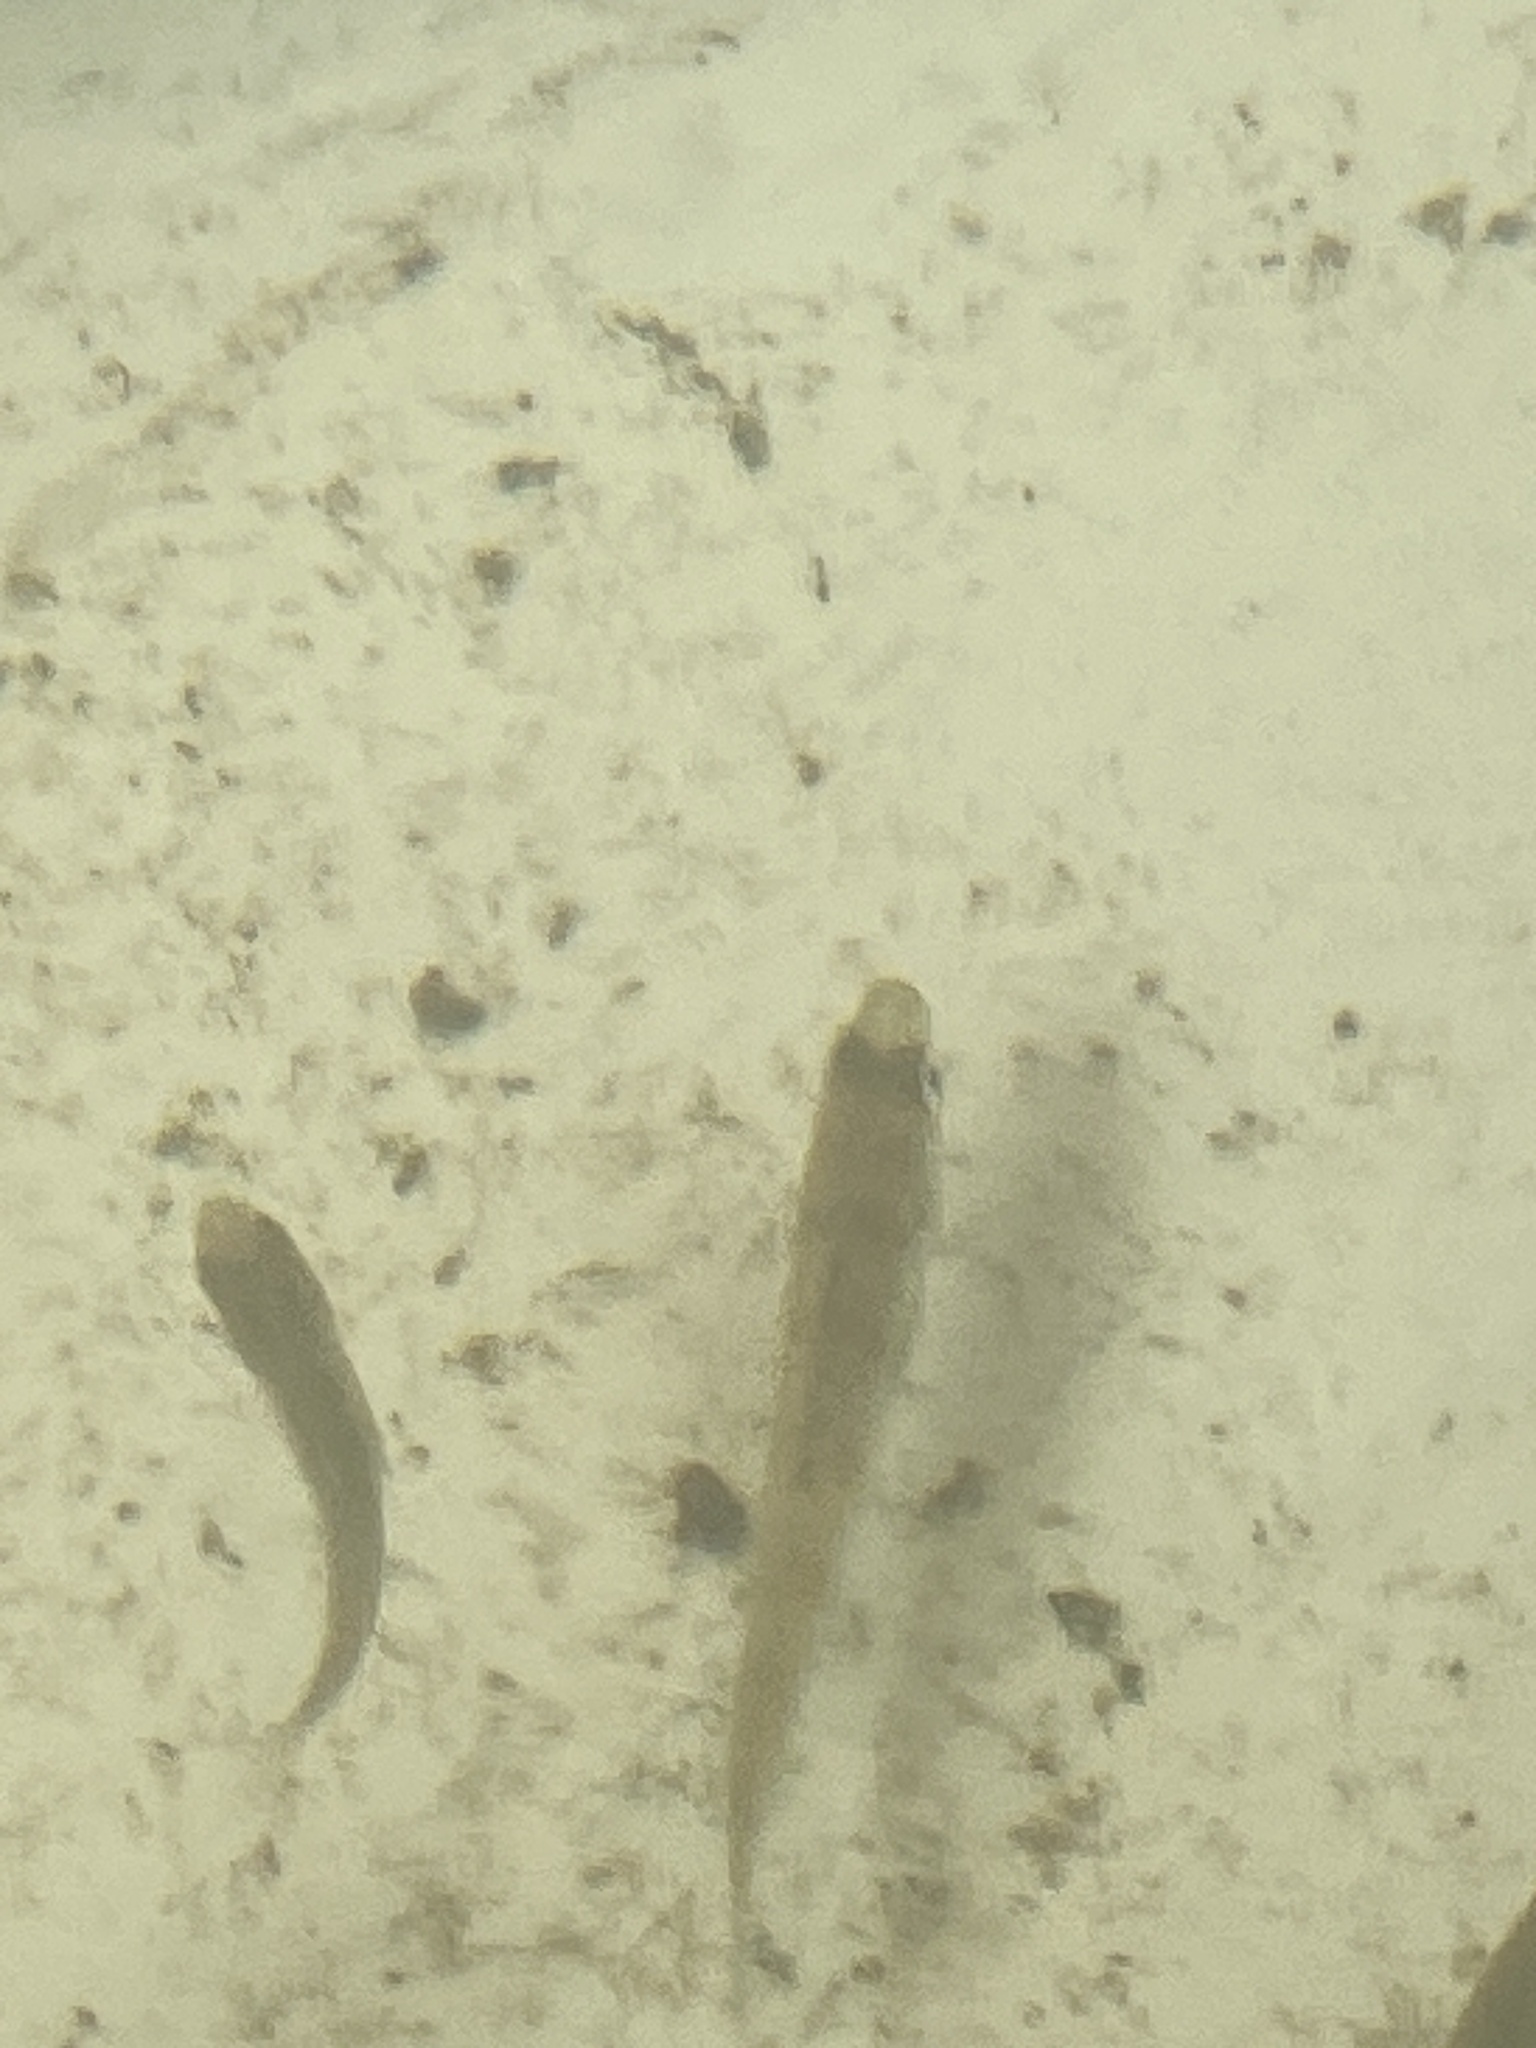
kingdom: Animalia
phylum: Chordata
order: Perciformes
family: Percidae
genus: Perca
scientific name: Perca flavescens
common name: Yellow perch
